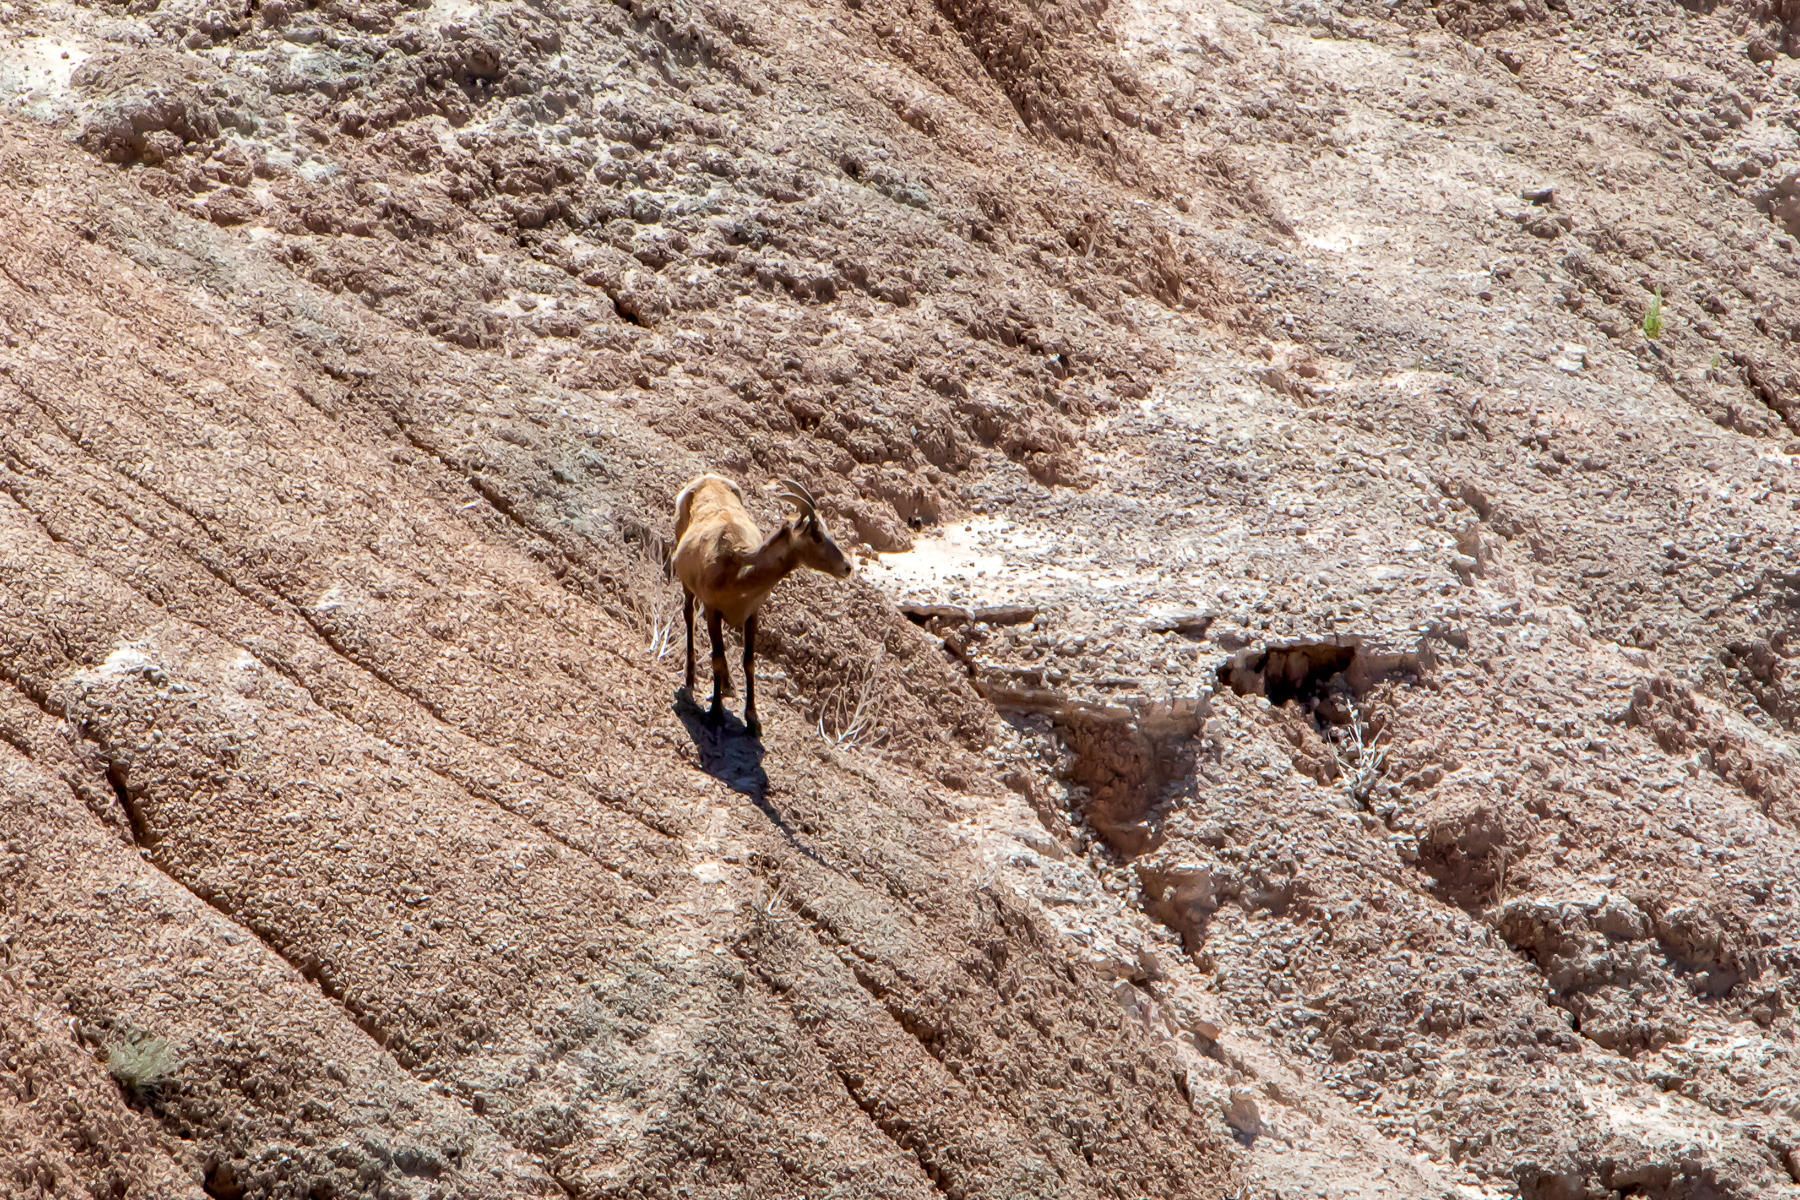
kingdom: Animalia
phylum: Chordata
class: Mammalia
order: Artiodactyla
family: Bovidae
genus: Ovis
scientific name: Ovis canadensis
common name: Bighorn sheep
